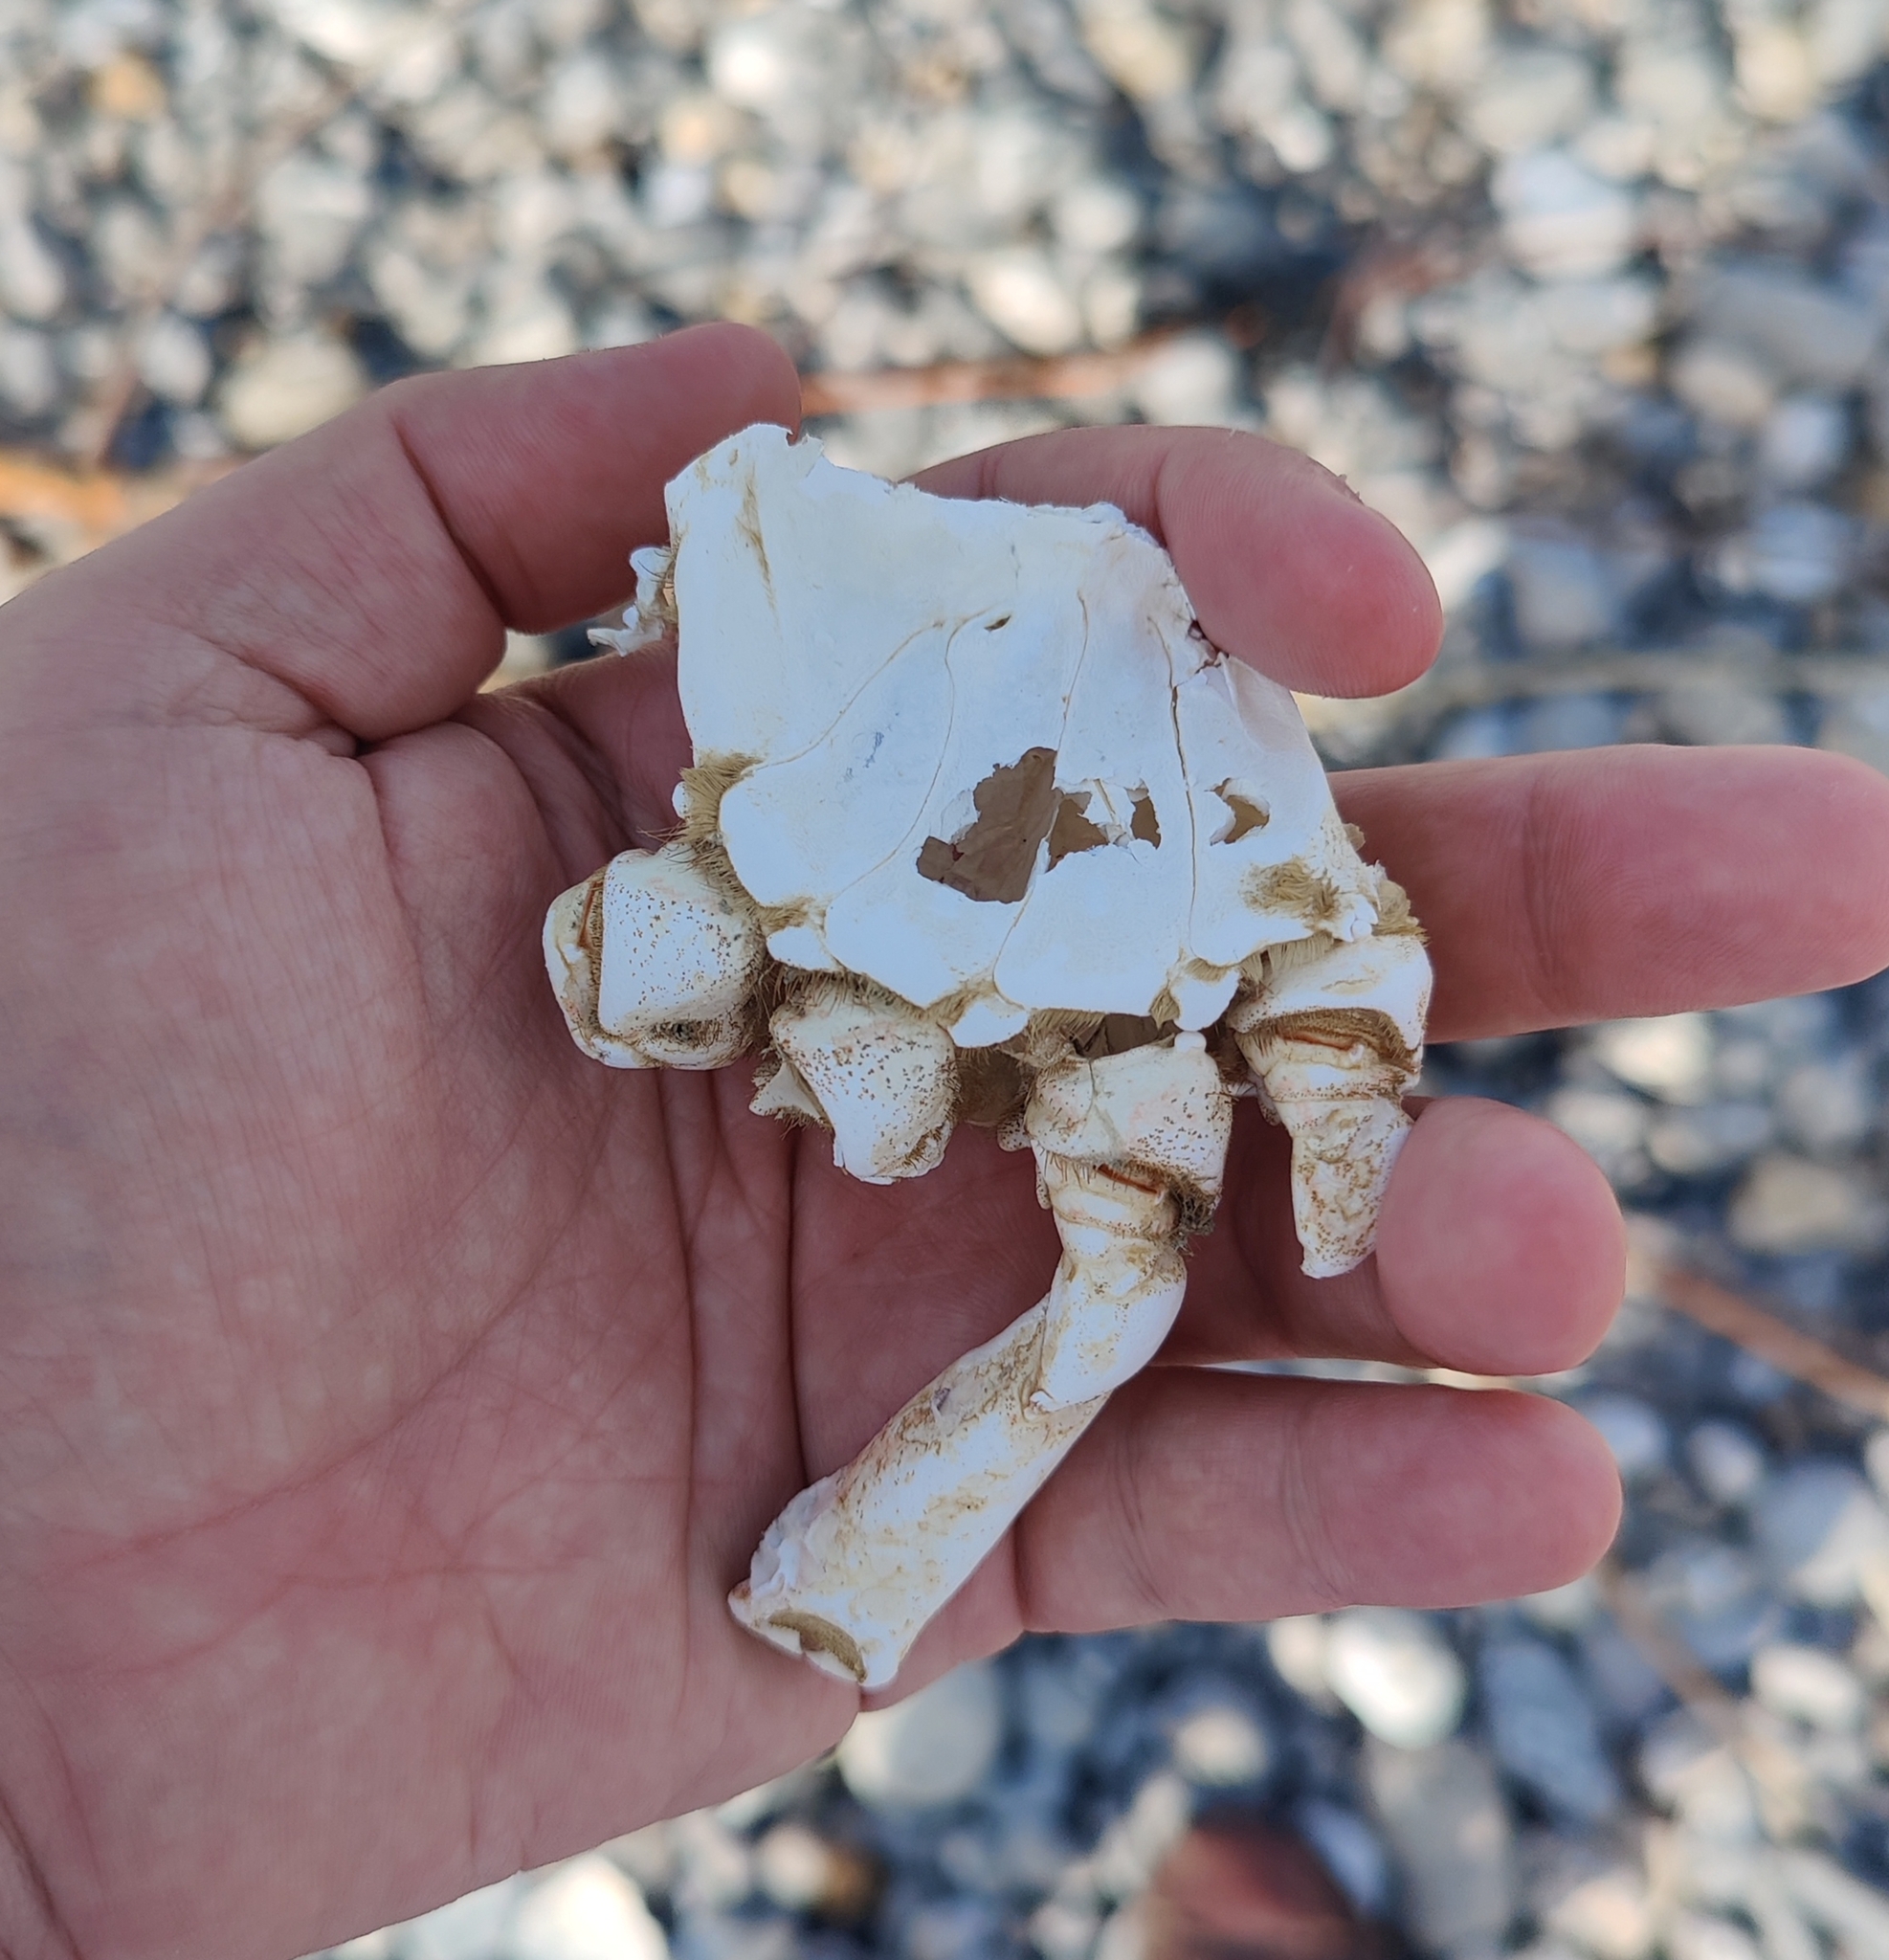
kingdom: Animalia
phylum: Arthropoda
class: Malacostraca
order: Decapoda
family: Majidae
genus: Maja
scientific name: Maja brachydactyla
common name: Common spider crab
